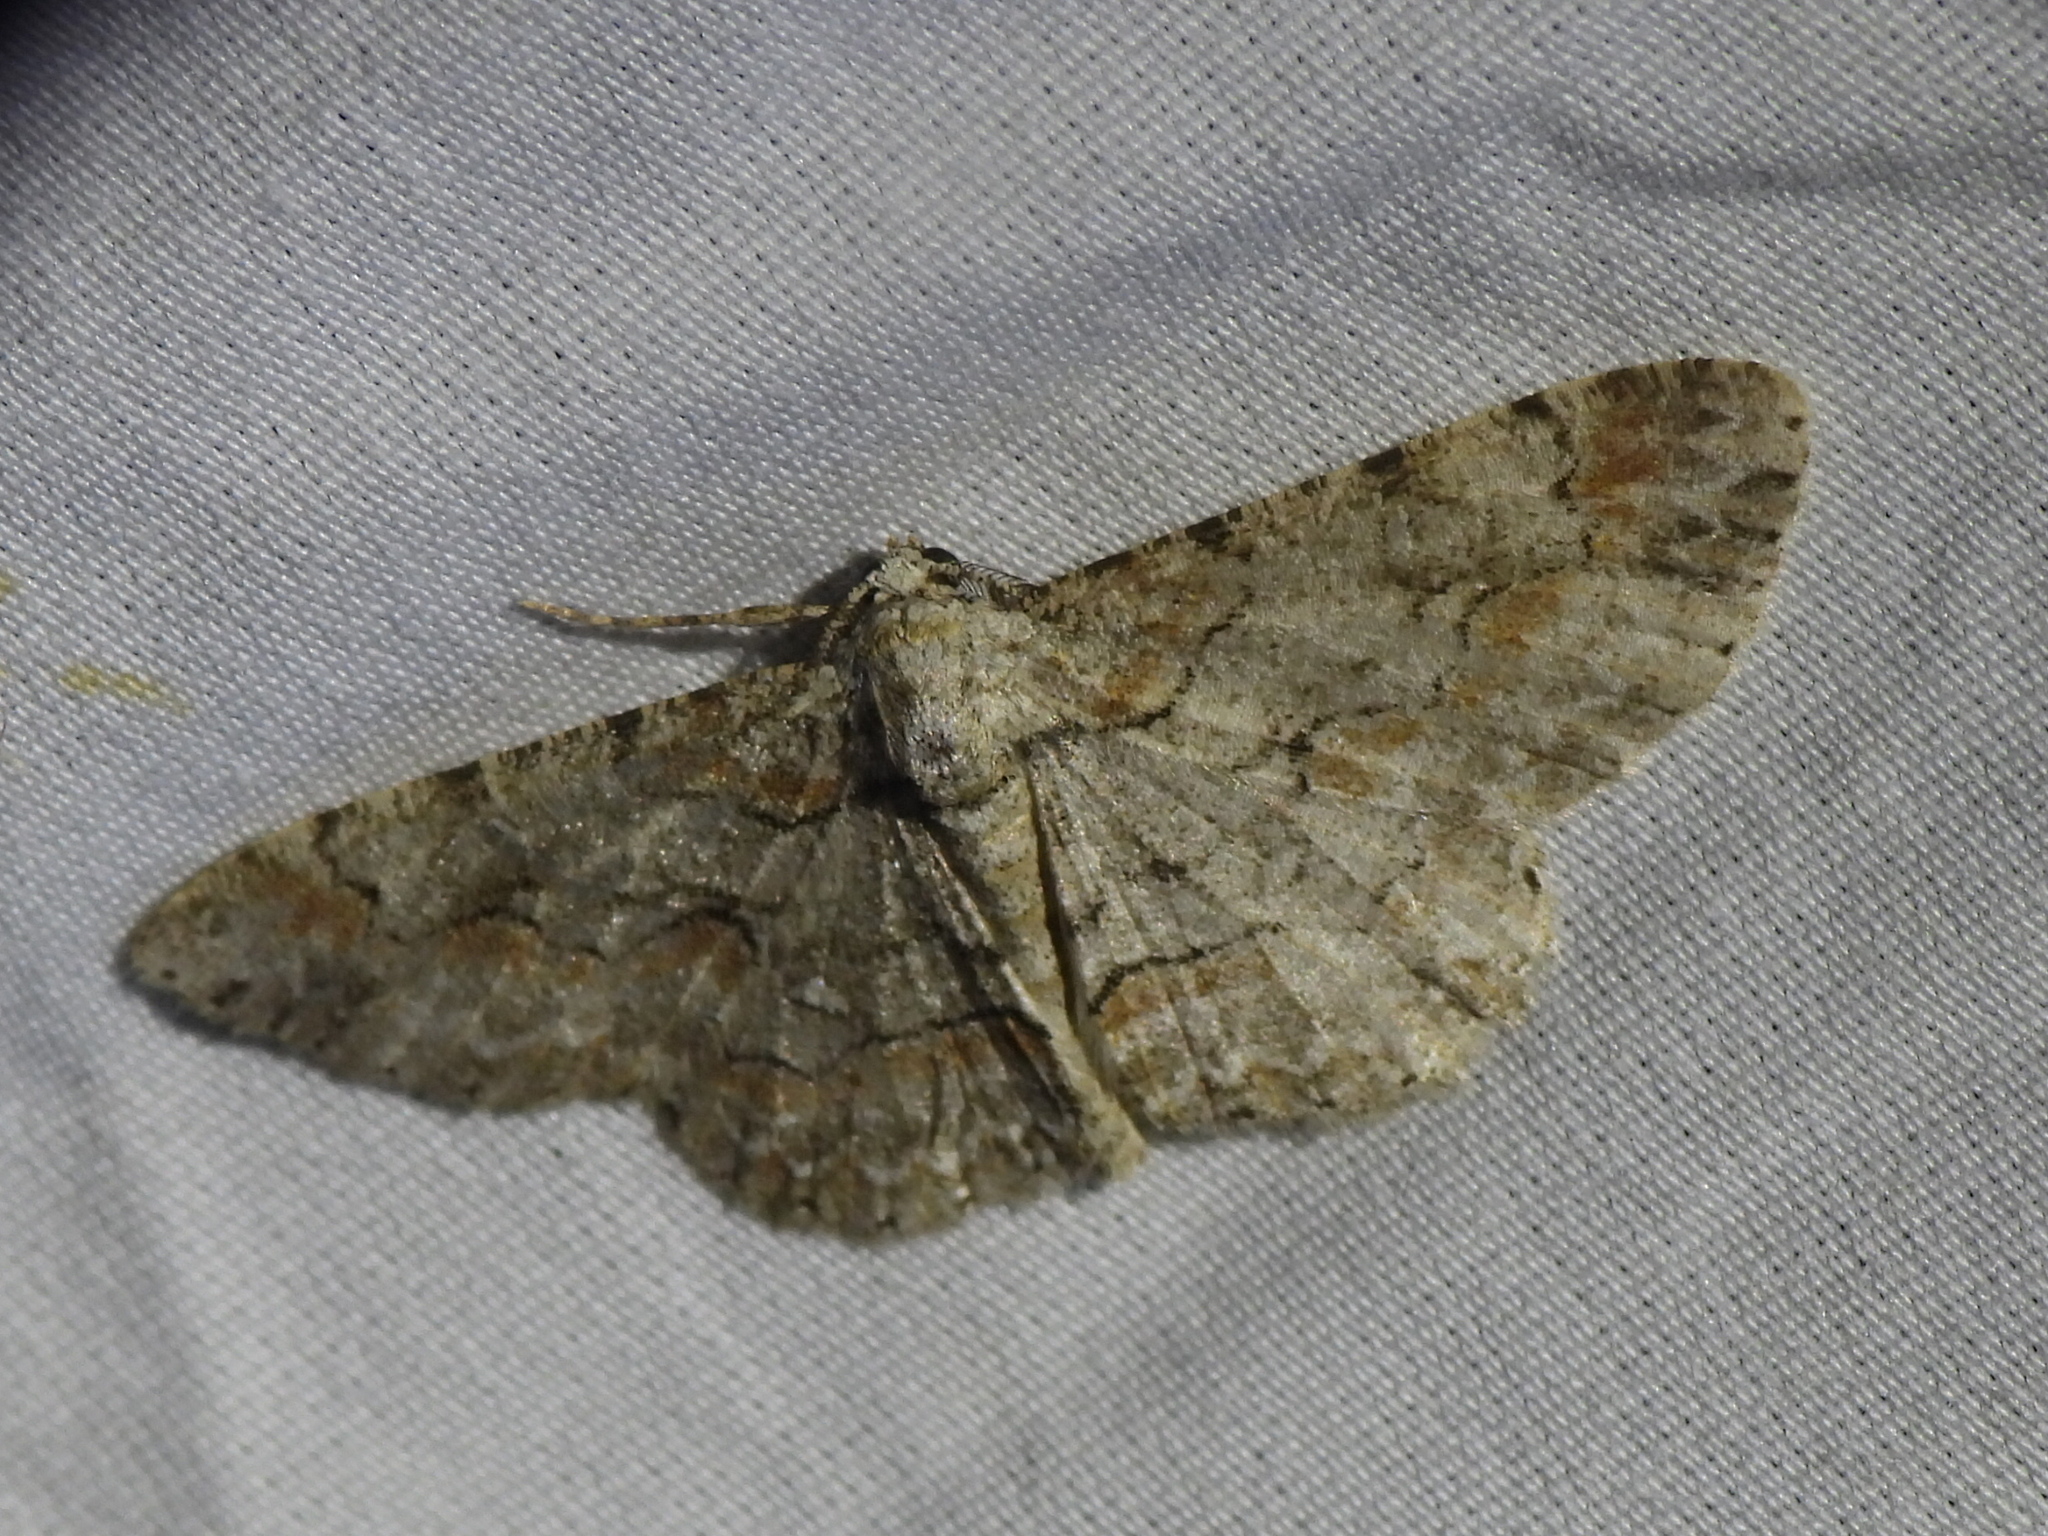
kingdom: Animalia
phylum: Arthropoda
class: Insecta
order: Lepidoptera
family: Geometridae
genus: Iridopsis
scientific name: Iridopsis defectaria
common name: Brown-shaded gray
